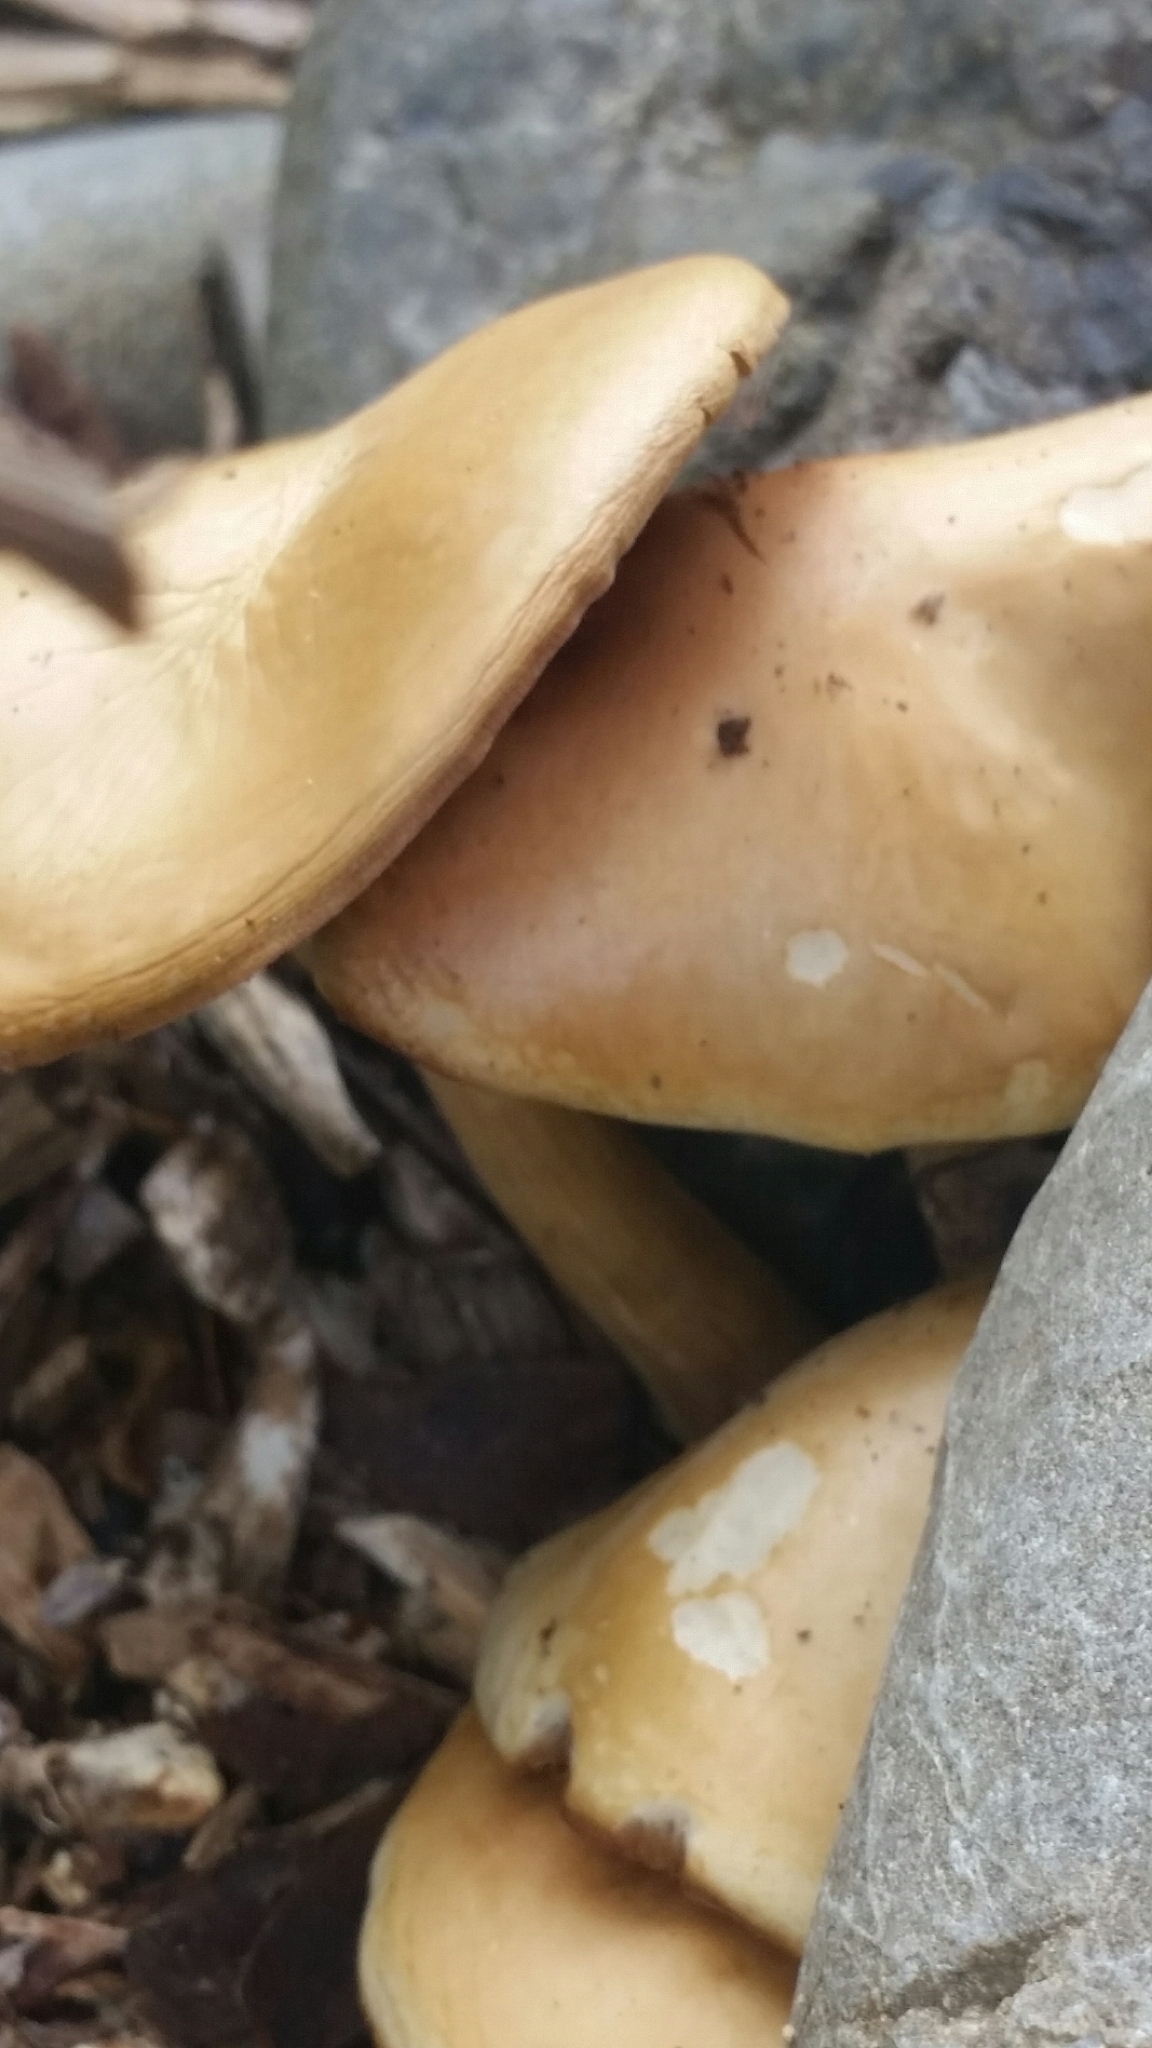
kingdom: Fungi
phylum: Basidiomycota
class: Agaricomycetes
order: Agaricales
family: Strophariaceae
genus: Agrocybe
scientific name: Agrocybe praecox
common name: Spring fieldcap
